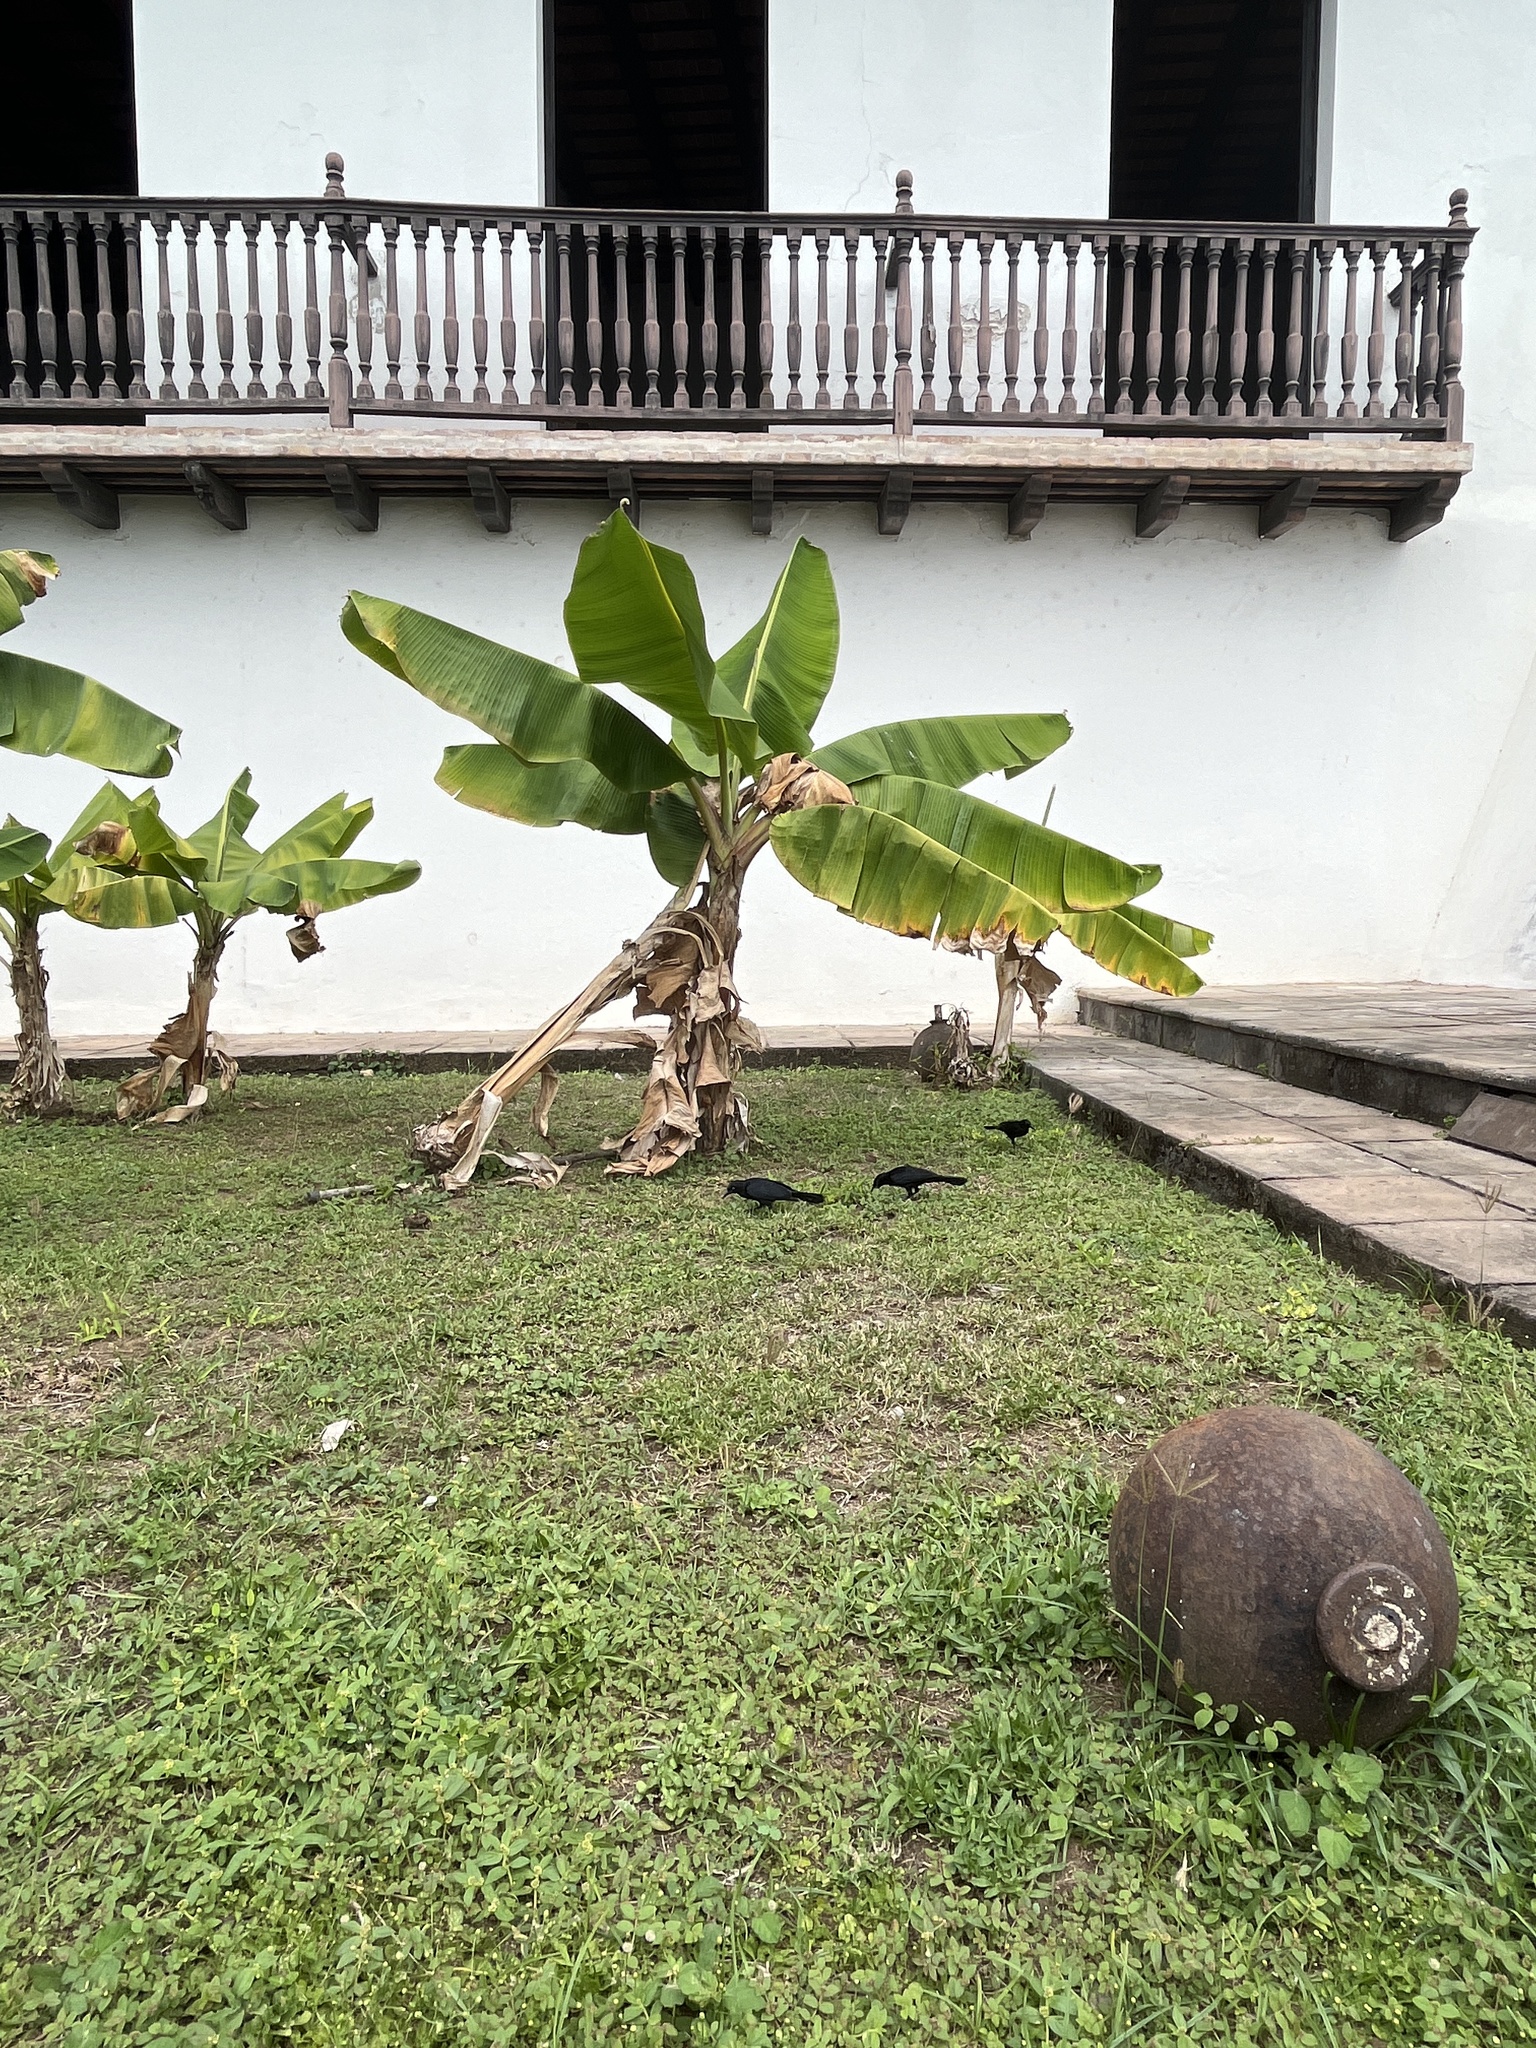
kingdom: Animalia
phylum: Chordata
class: Aves
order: Passeriformes
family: Icteridae
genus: Quiscalus
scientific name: Quiscalus niger
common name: Greater antillean grackle
